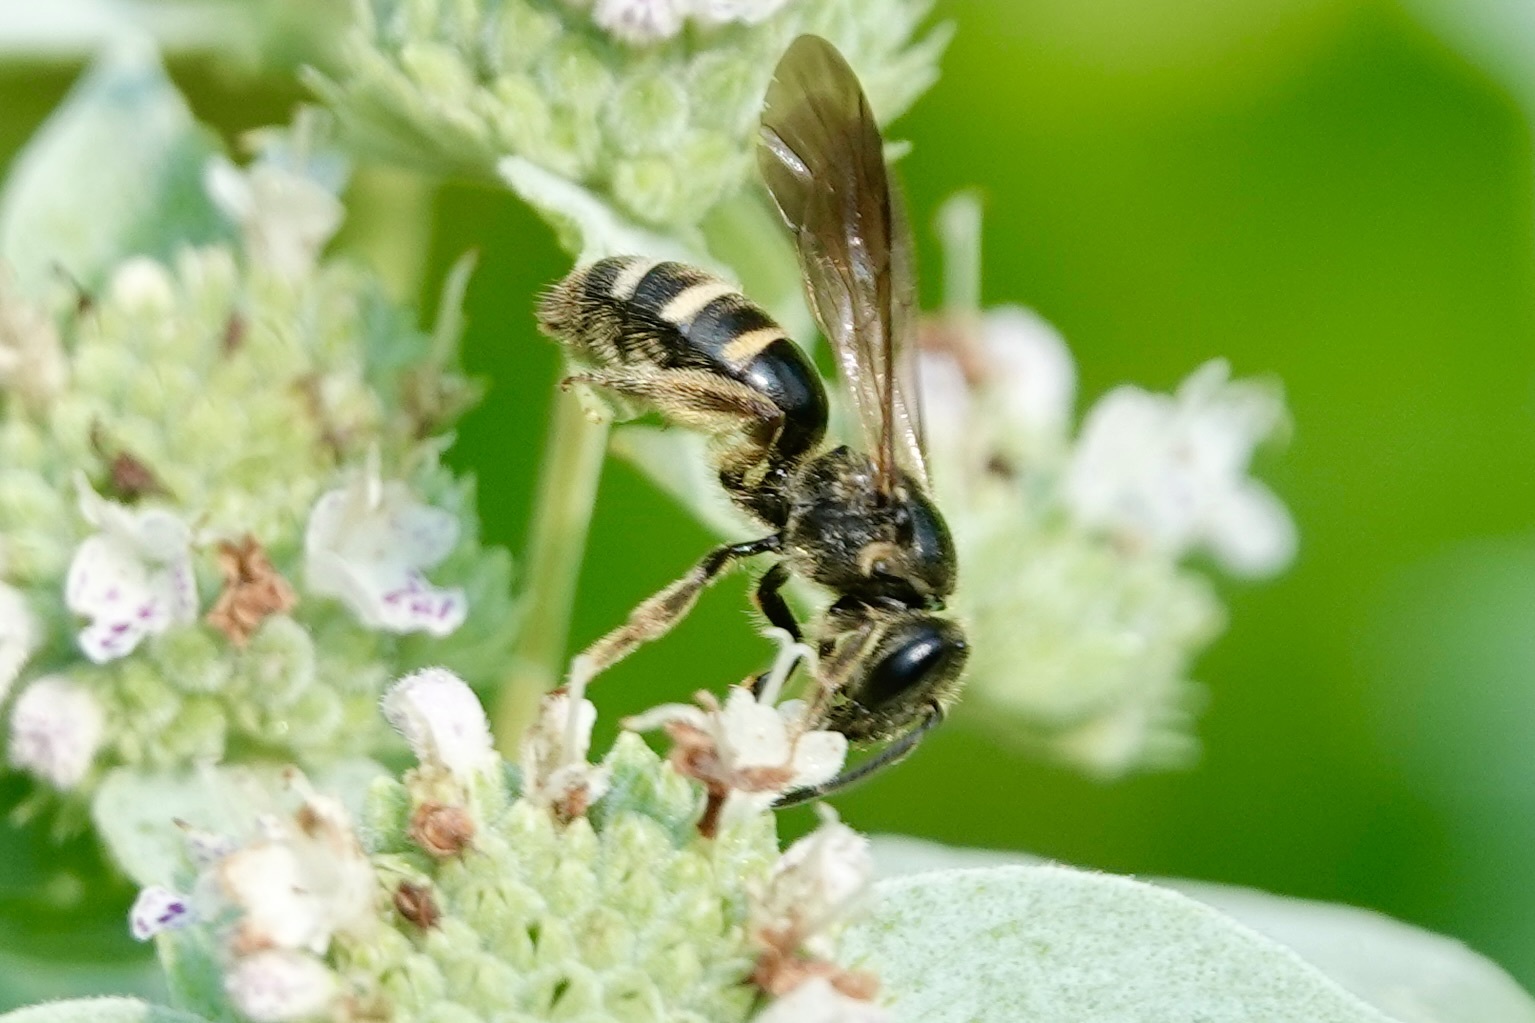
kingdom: Animalia
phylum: Arthropoda
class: Insecta
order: Hymenoptera
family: Halictidae
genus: Lasioglossum
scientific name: Lasioglossum fuscipenne
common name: Brown-winged sweat bee
